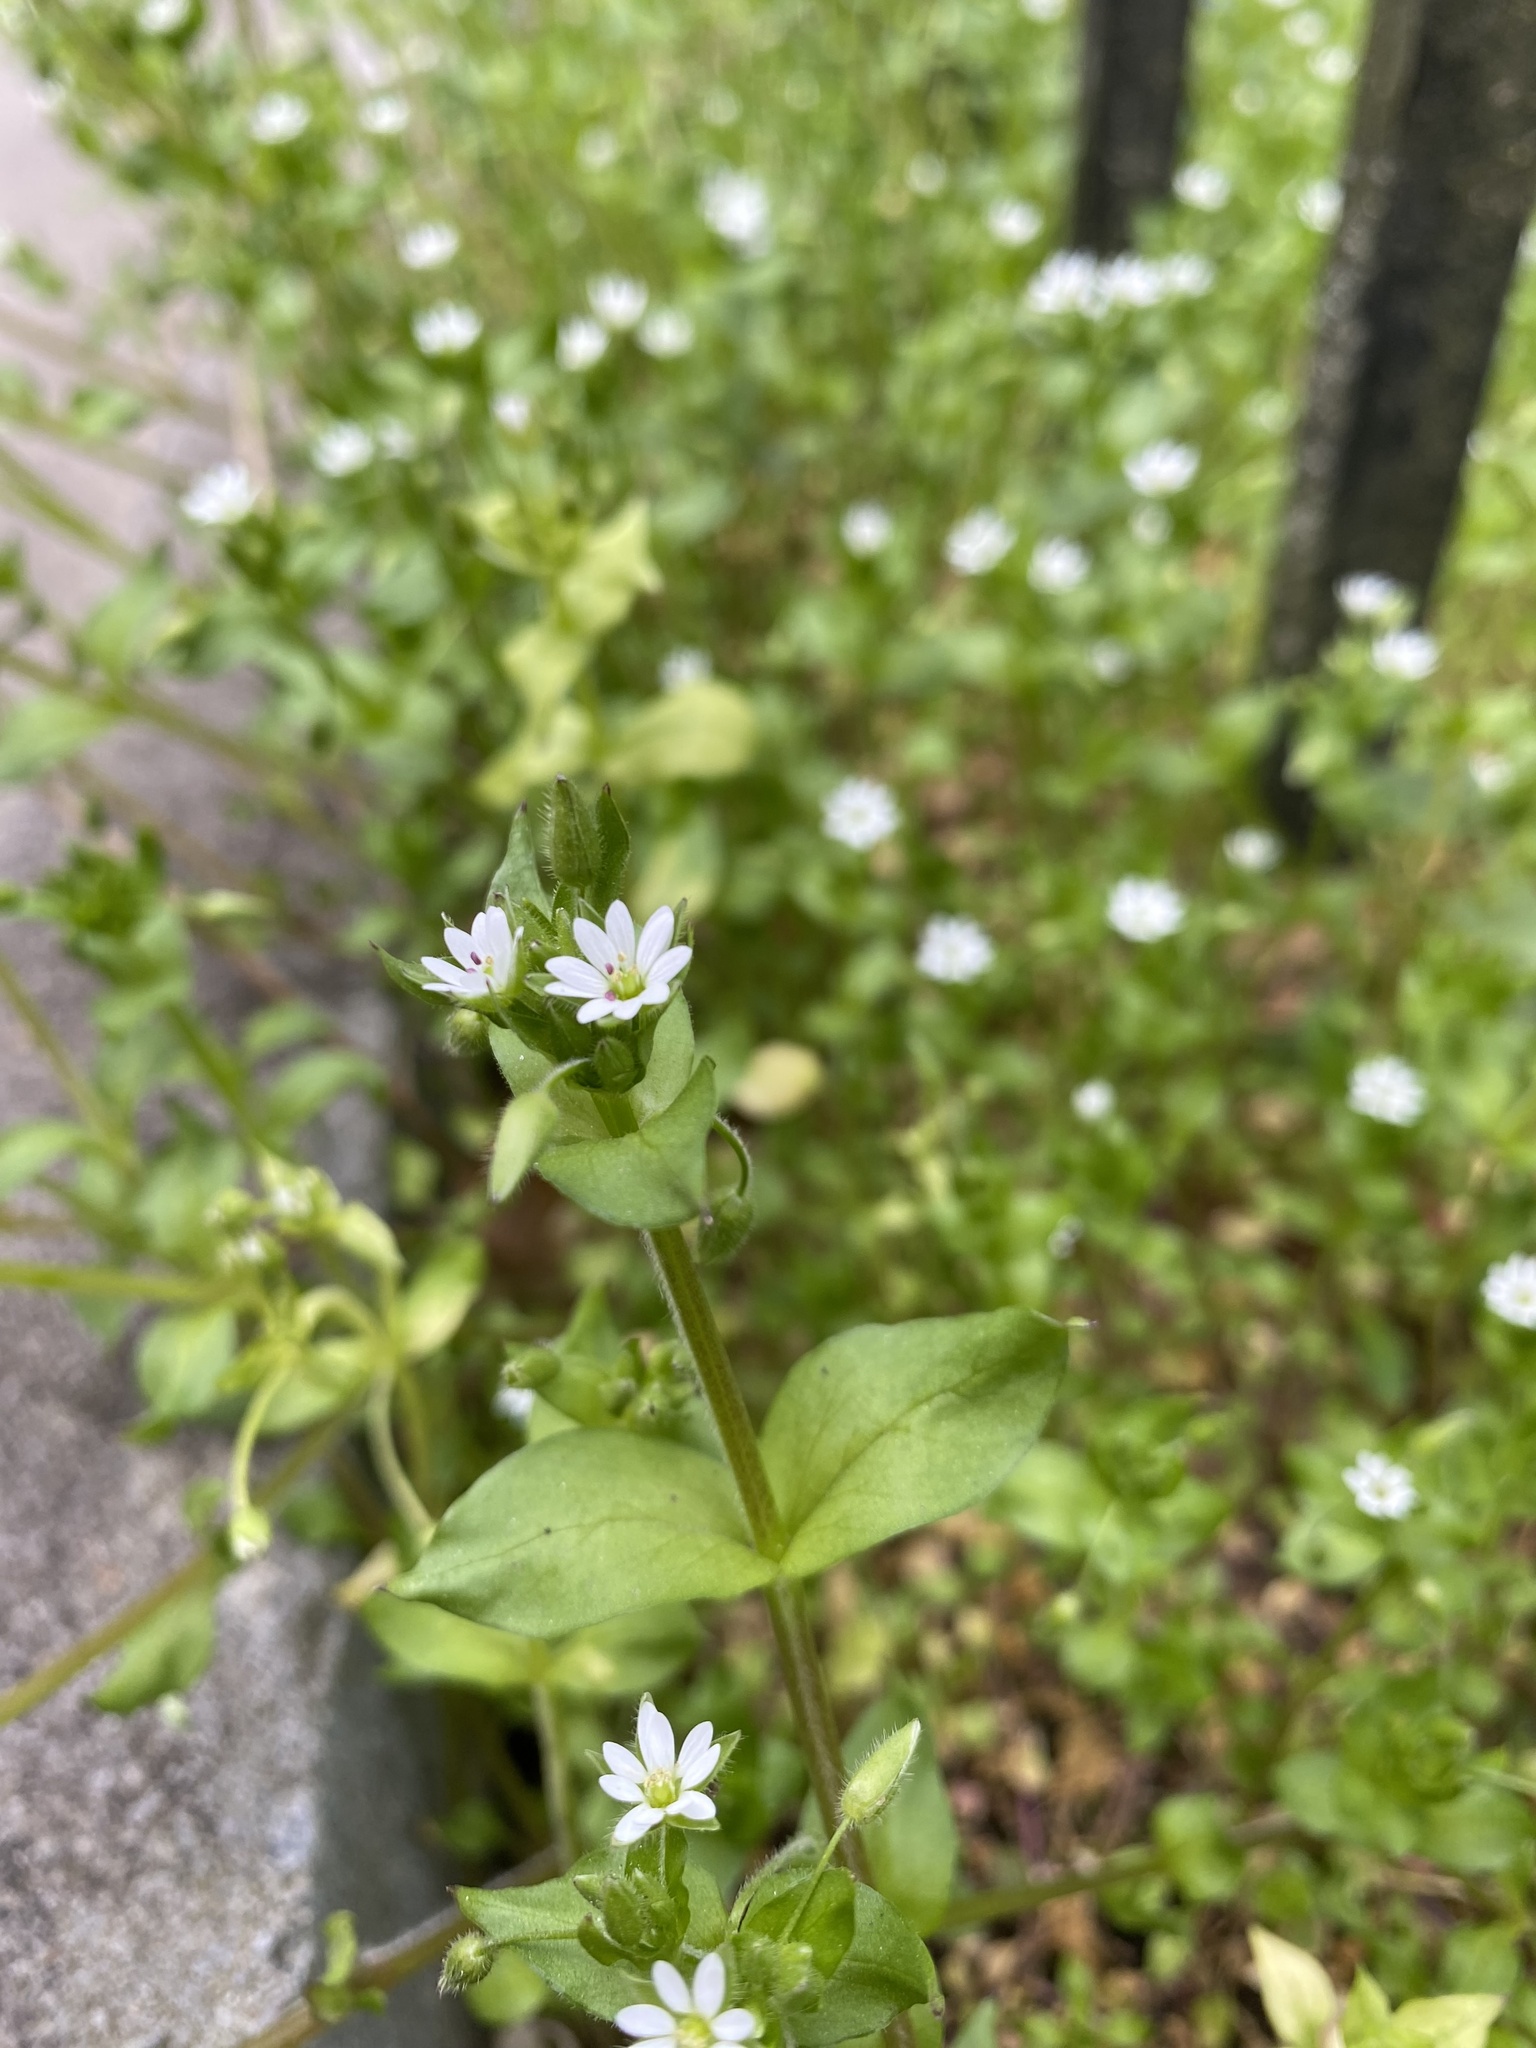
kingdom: Plantae
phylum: Tracheophyta
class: Magnoliopsida
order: Caryophyllales
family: Caryophyllaceae
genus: Stellaria
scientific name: Stellaria neglecta
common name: Greater chickweed
